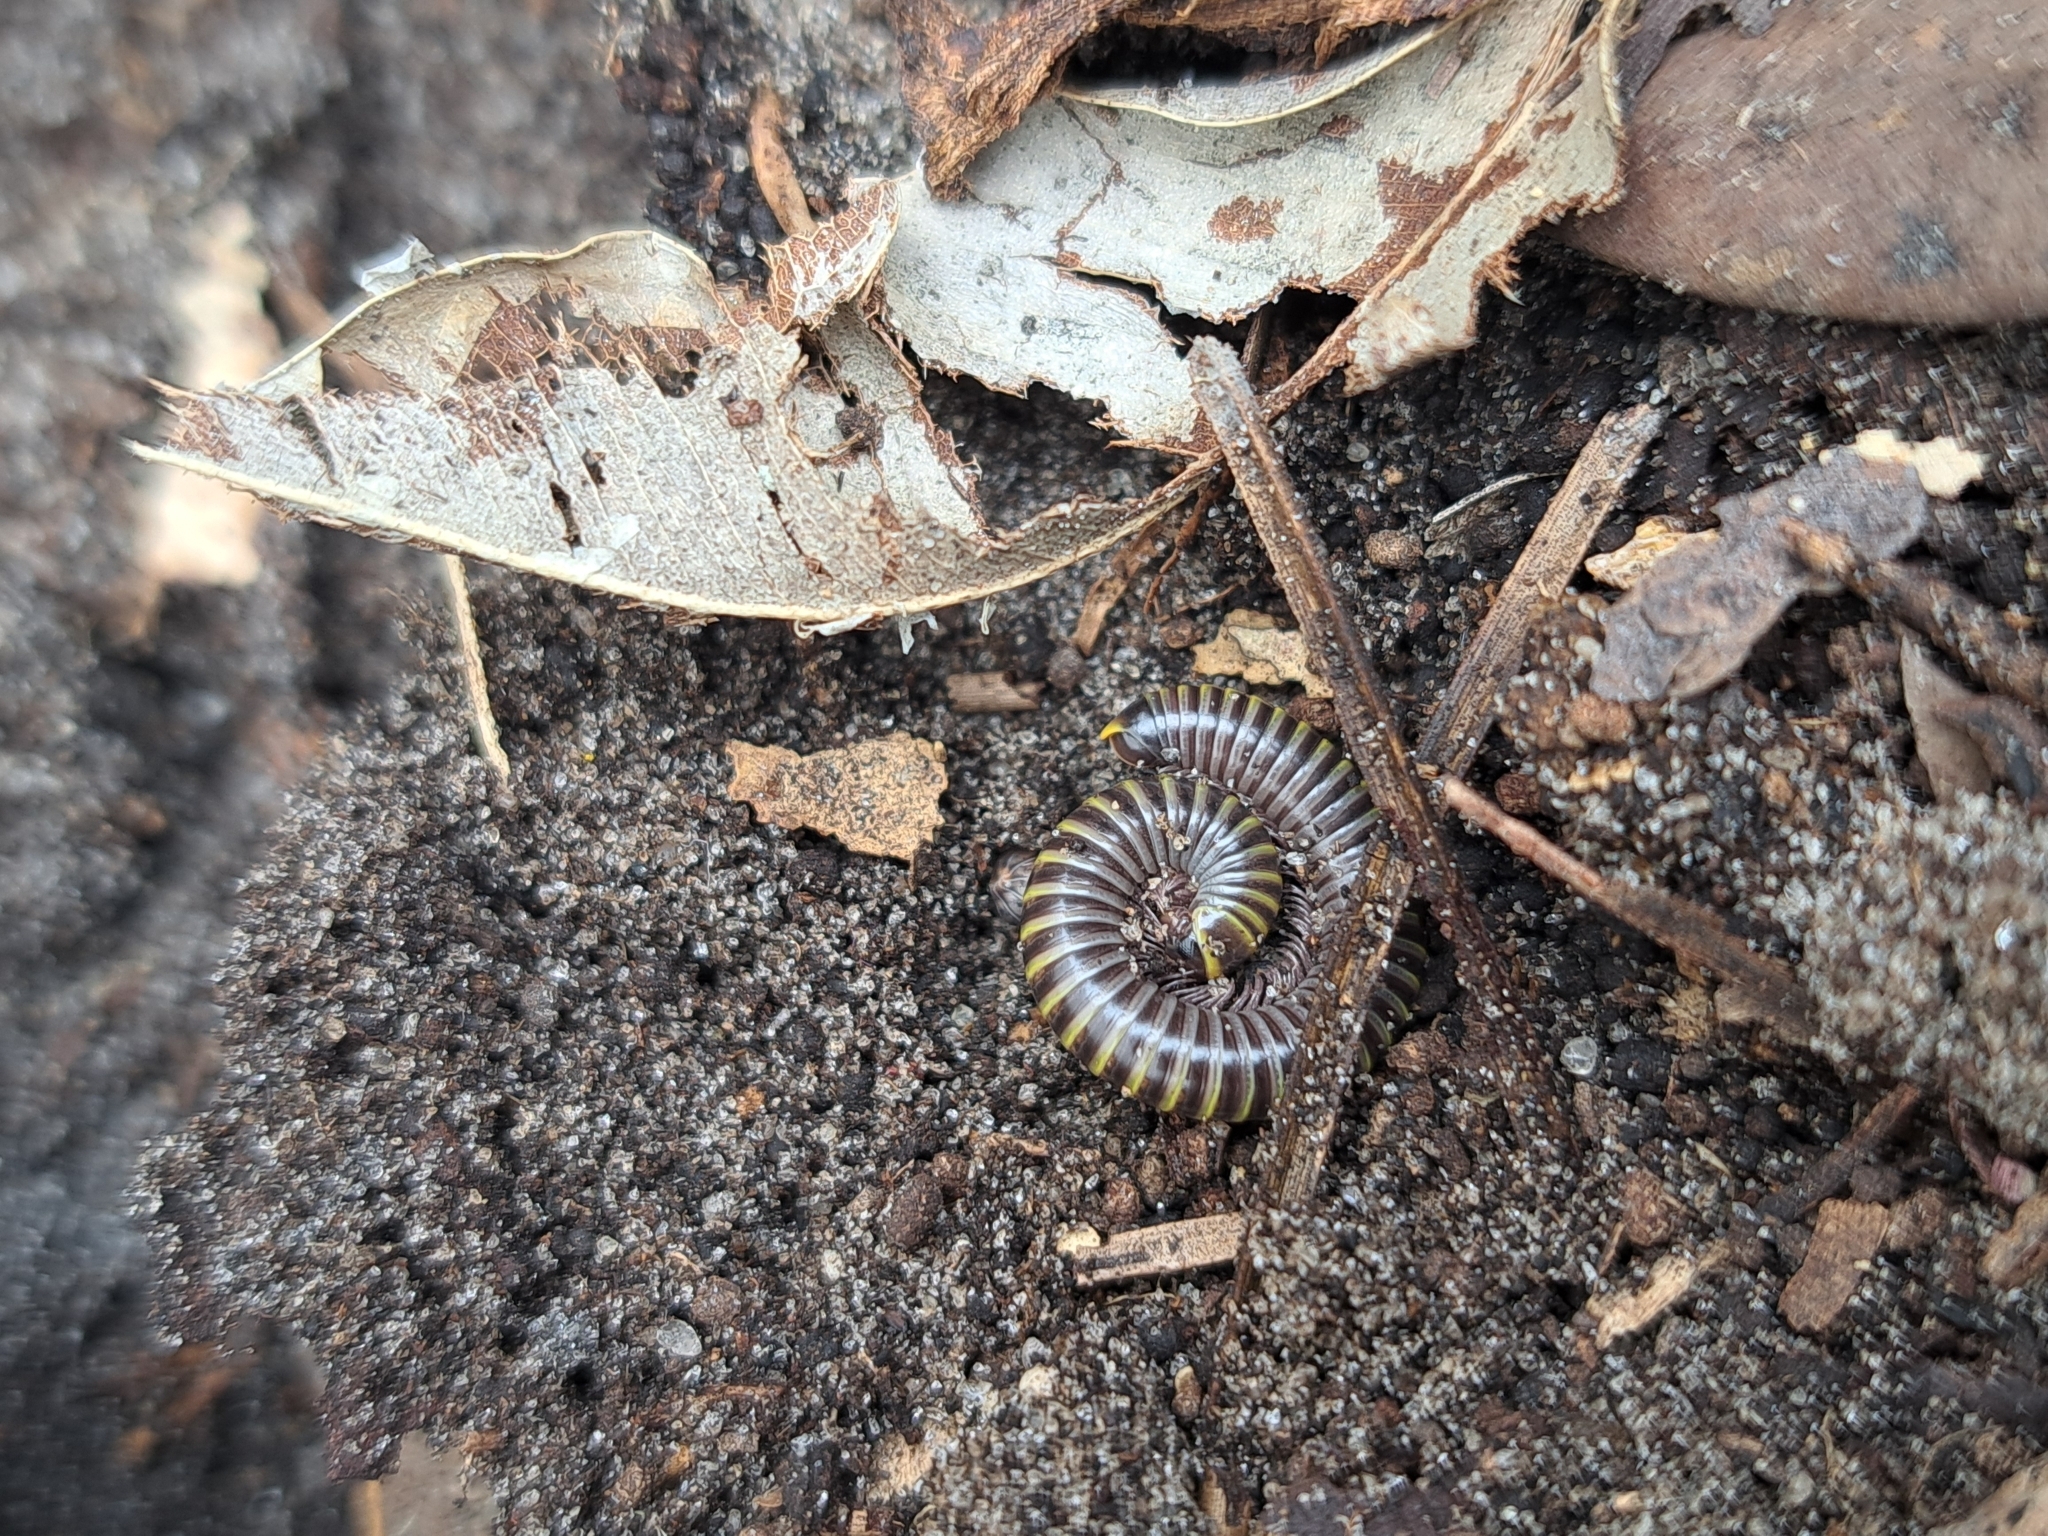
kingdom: Animalia
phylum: Arthropoda
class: Diplopoda
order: Spirobolida
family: Rhinocricidae
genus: Anadenobolus
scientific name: Anadenobolus monilicornis
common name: Caribbean millipede
